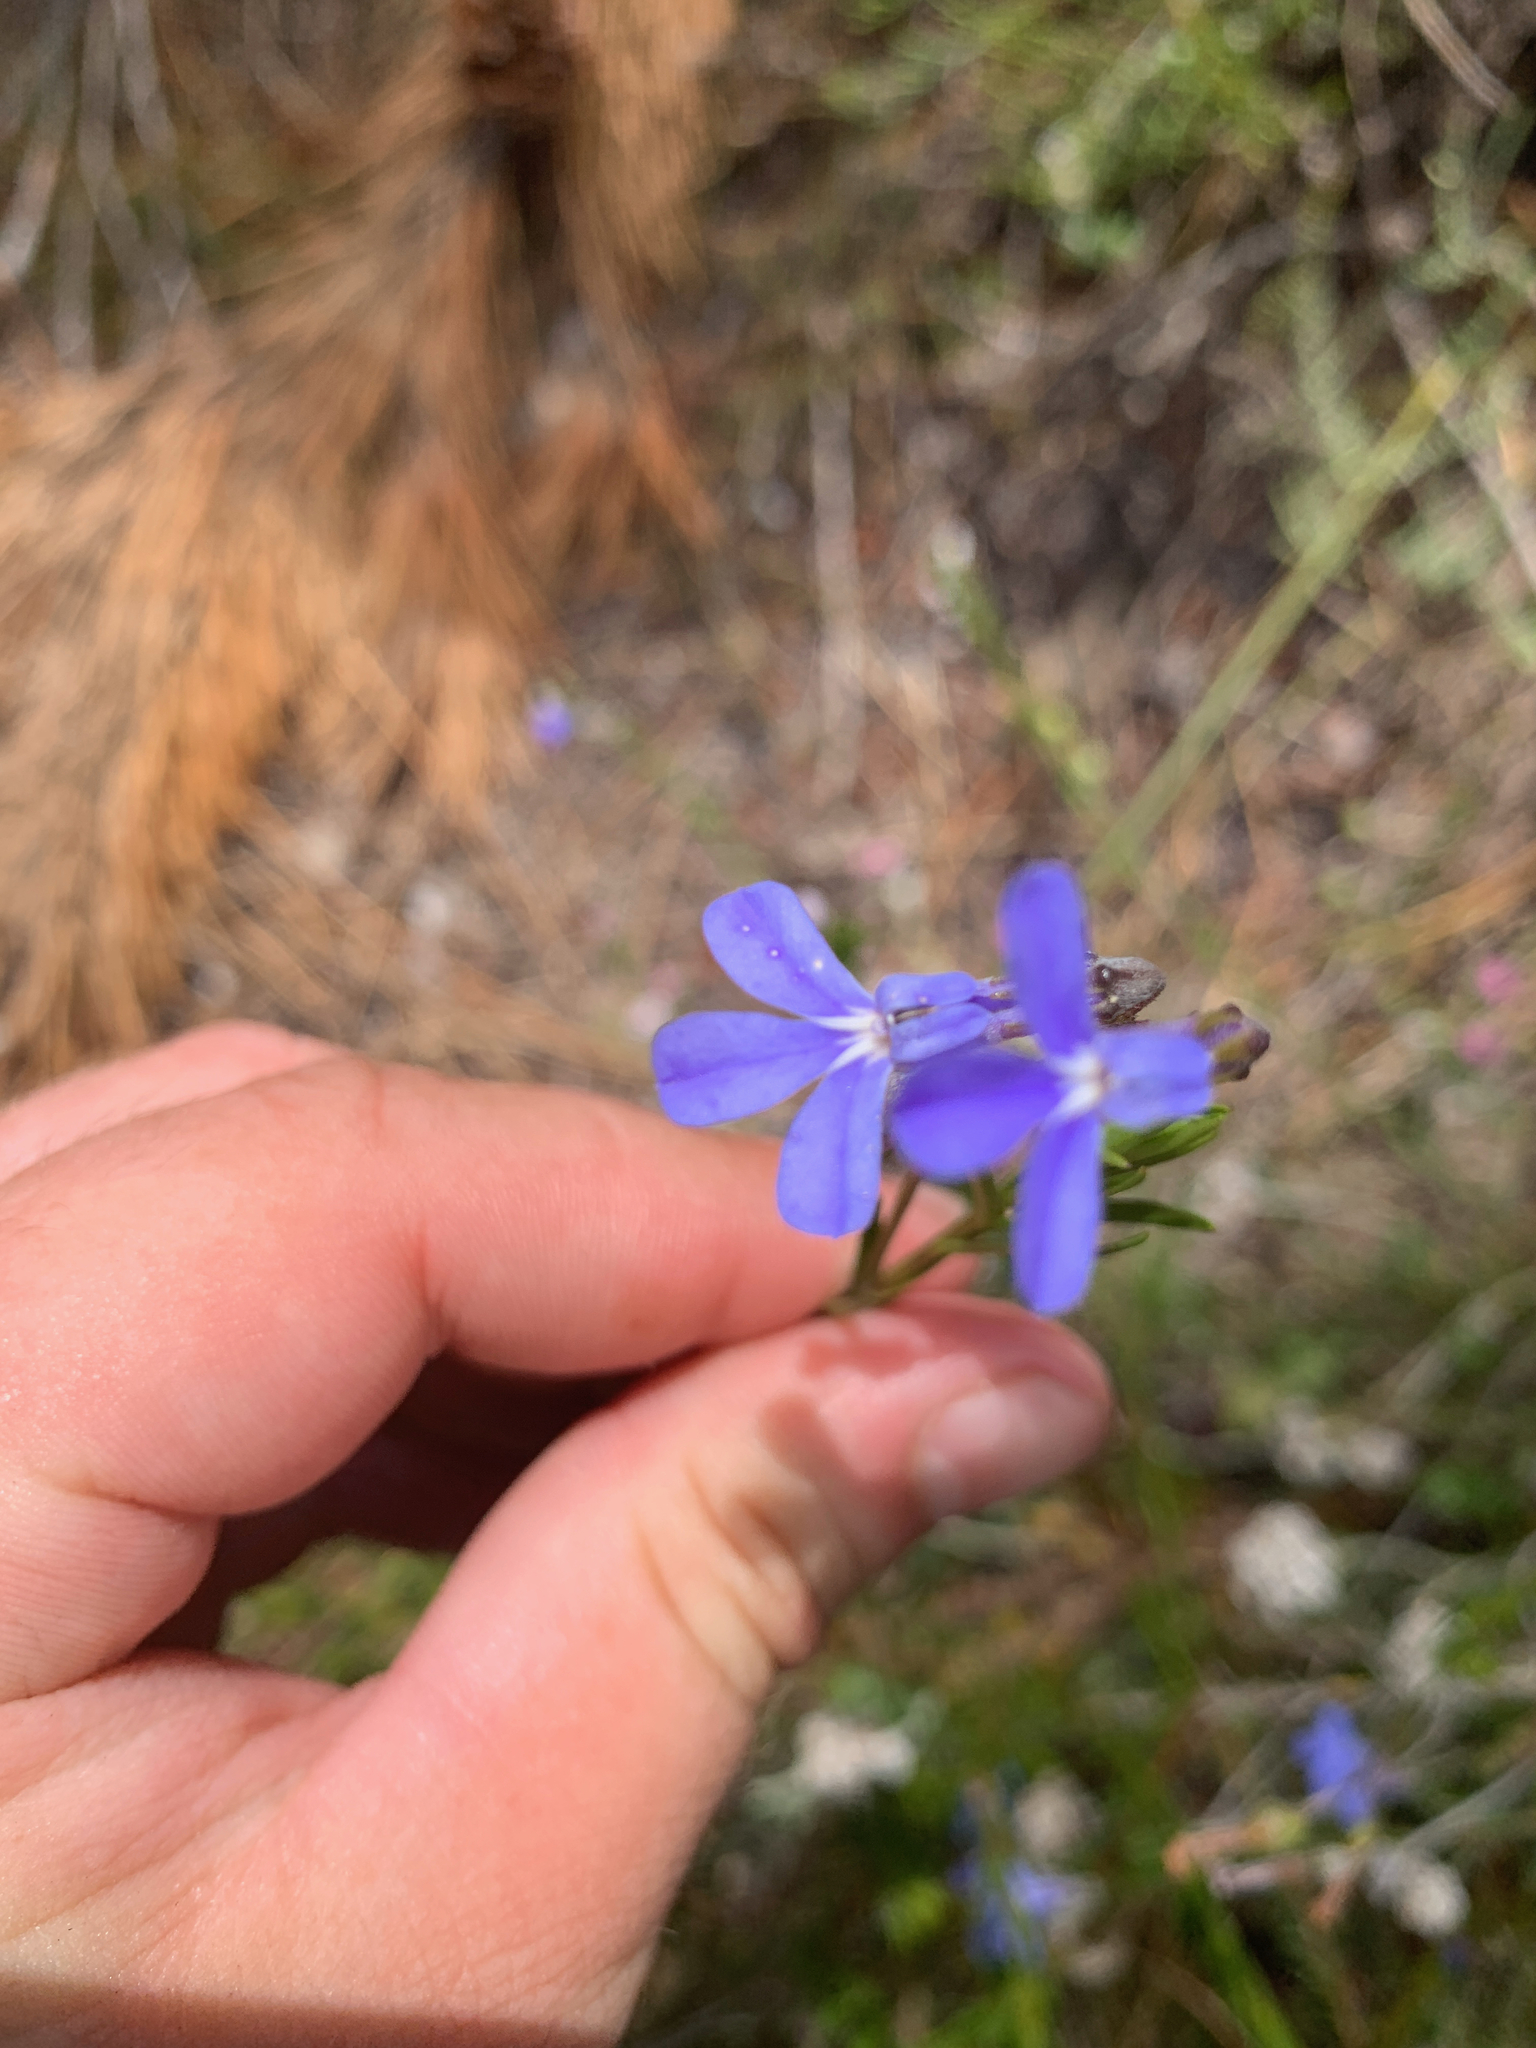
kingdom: Plantae
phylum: Tracheophyta
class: Magnoliopsida
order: Asterales
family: Campanulaceae
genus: Lobelia
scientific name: Lobelia pinifolia
